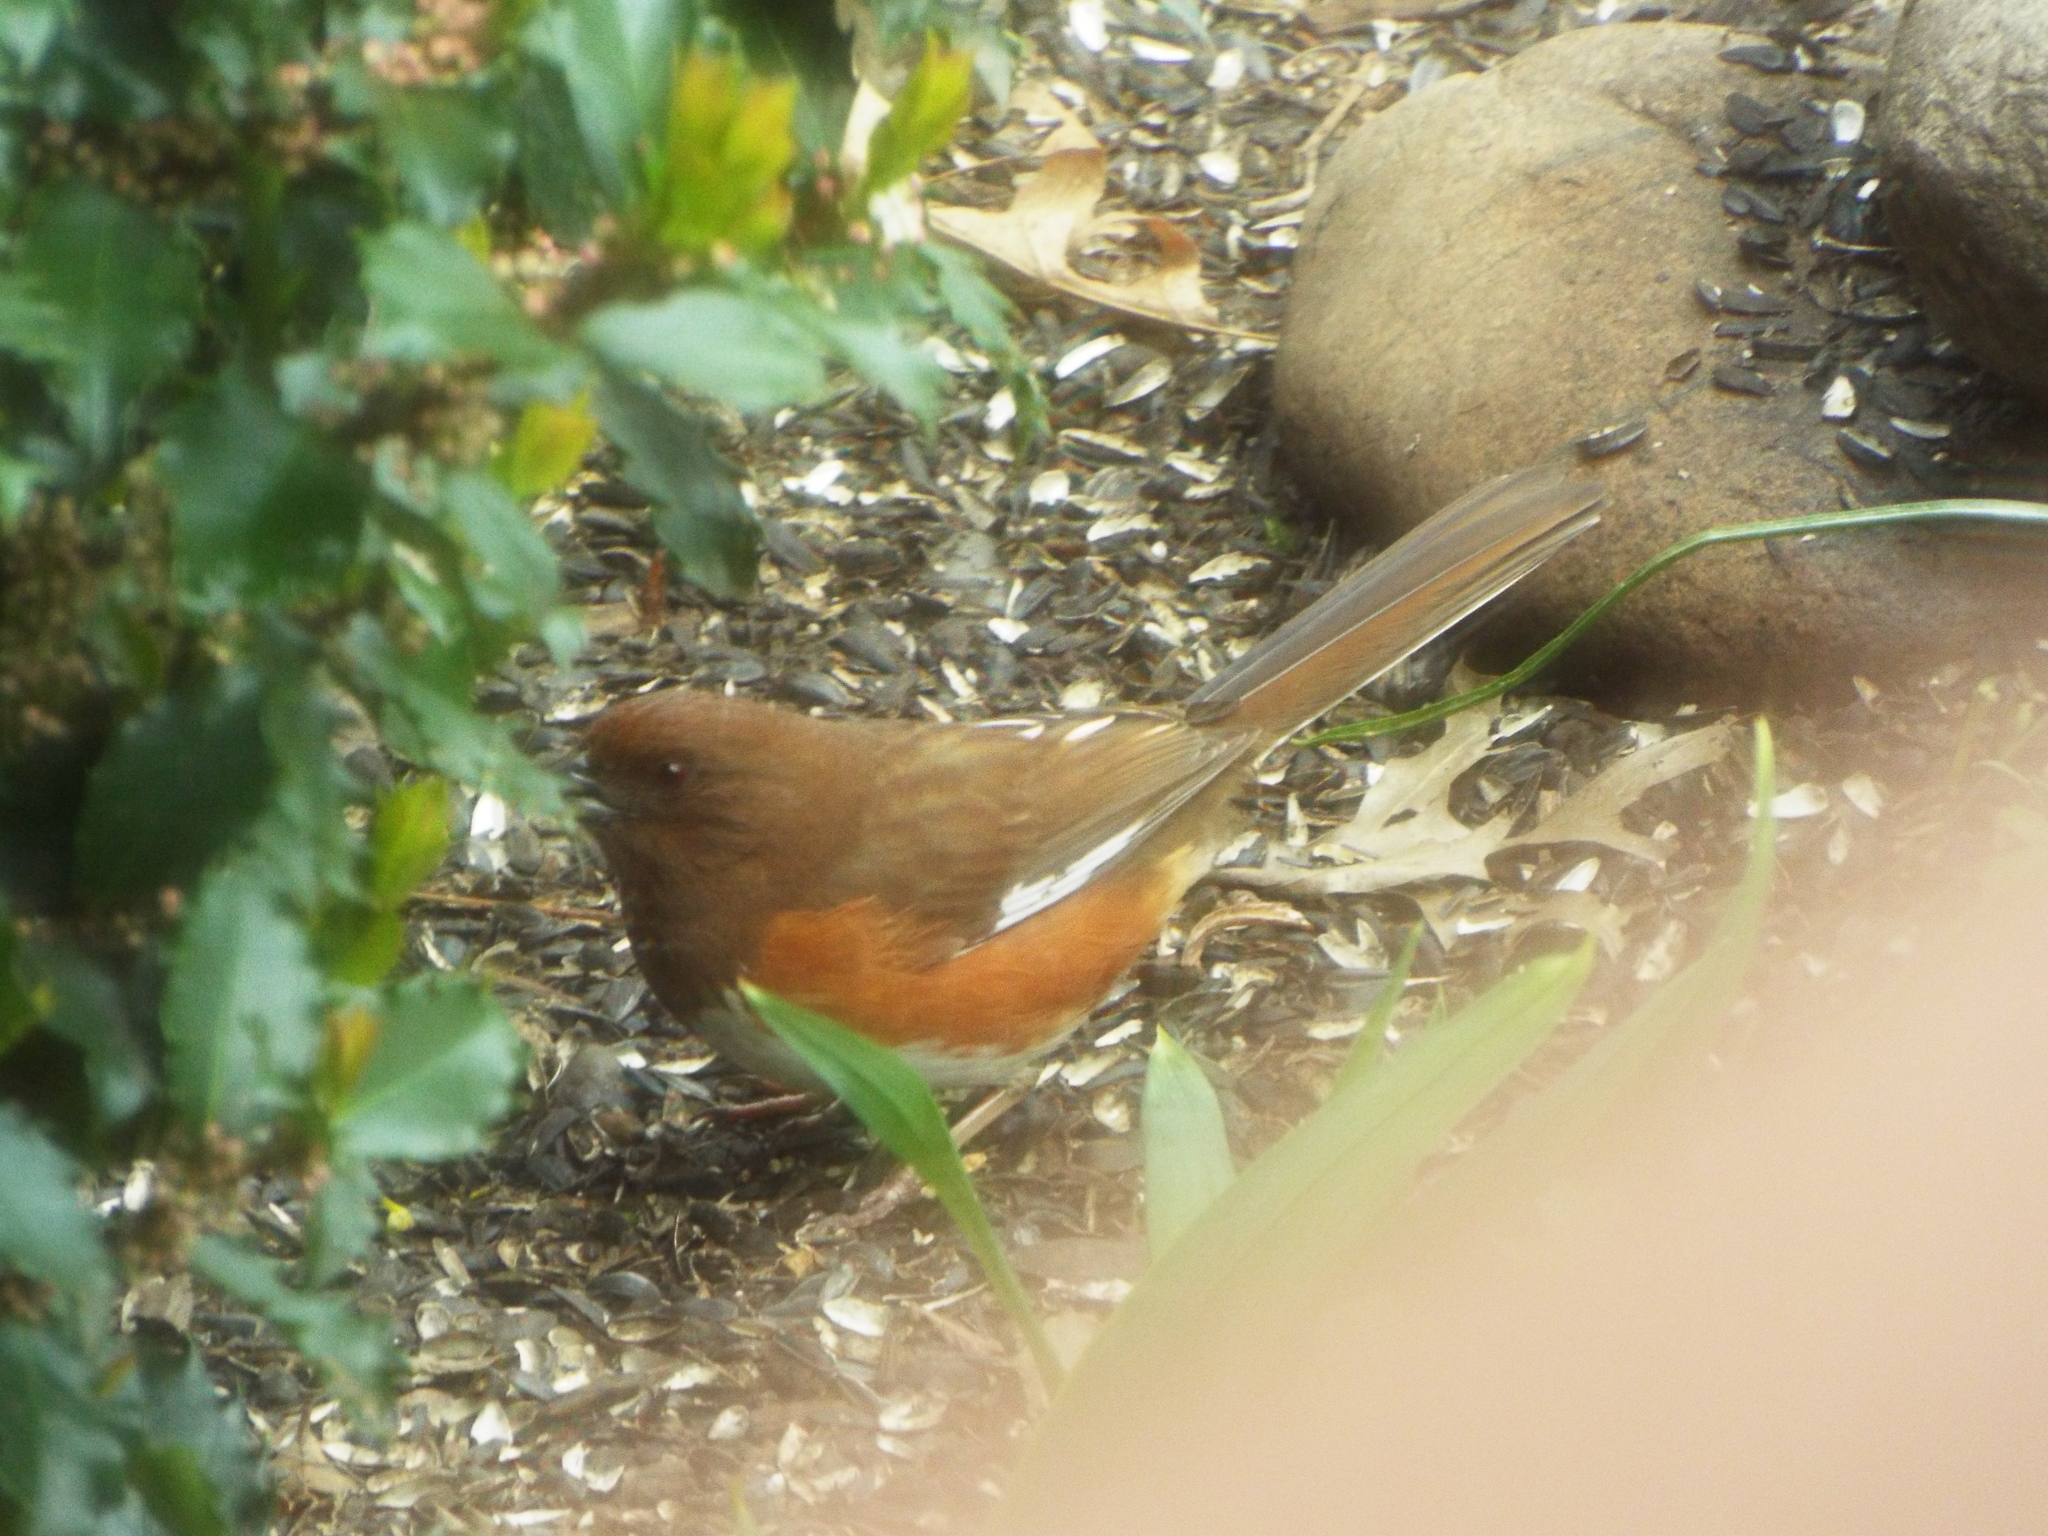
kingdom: Animalia
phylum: Chordata
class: Aves
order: Passeriformes
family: Passerellidae
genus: Pipilo
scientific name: Pipilo erythrophthalmus
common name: Eastern towhee
